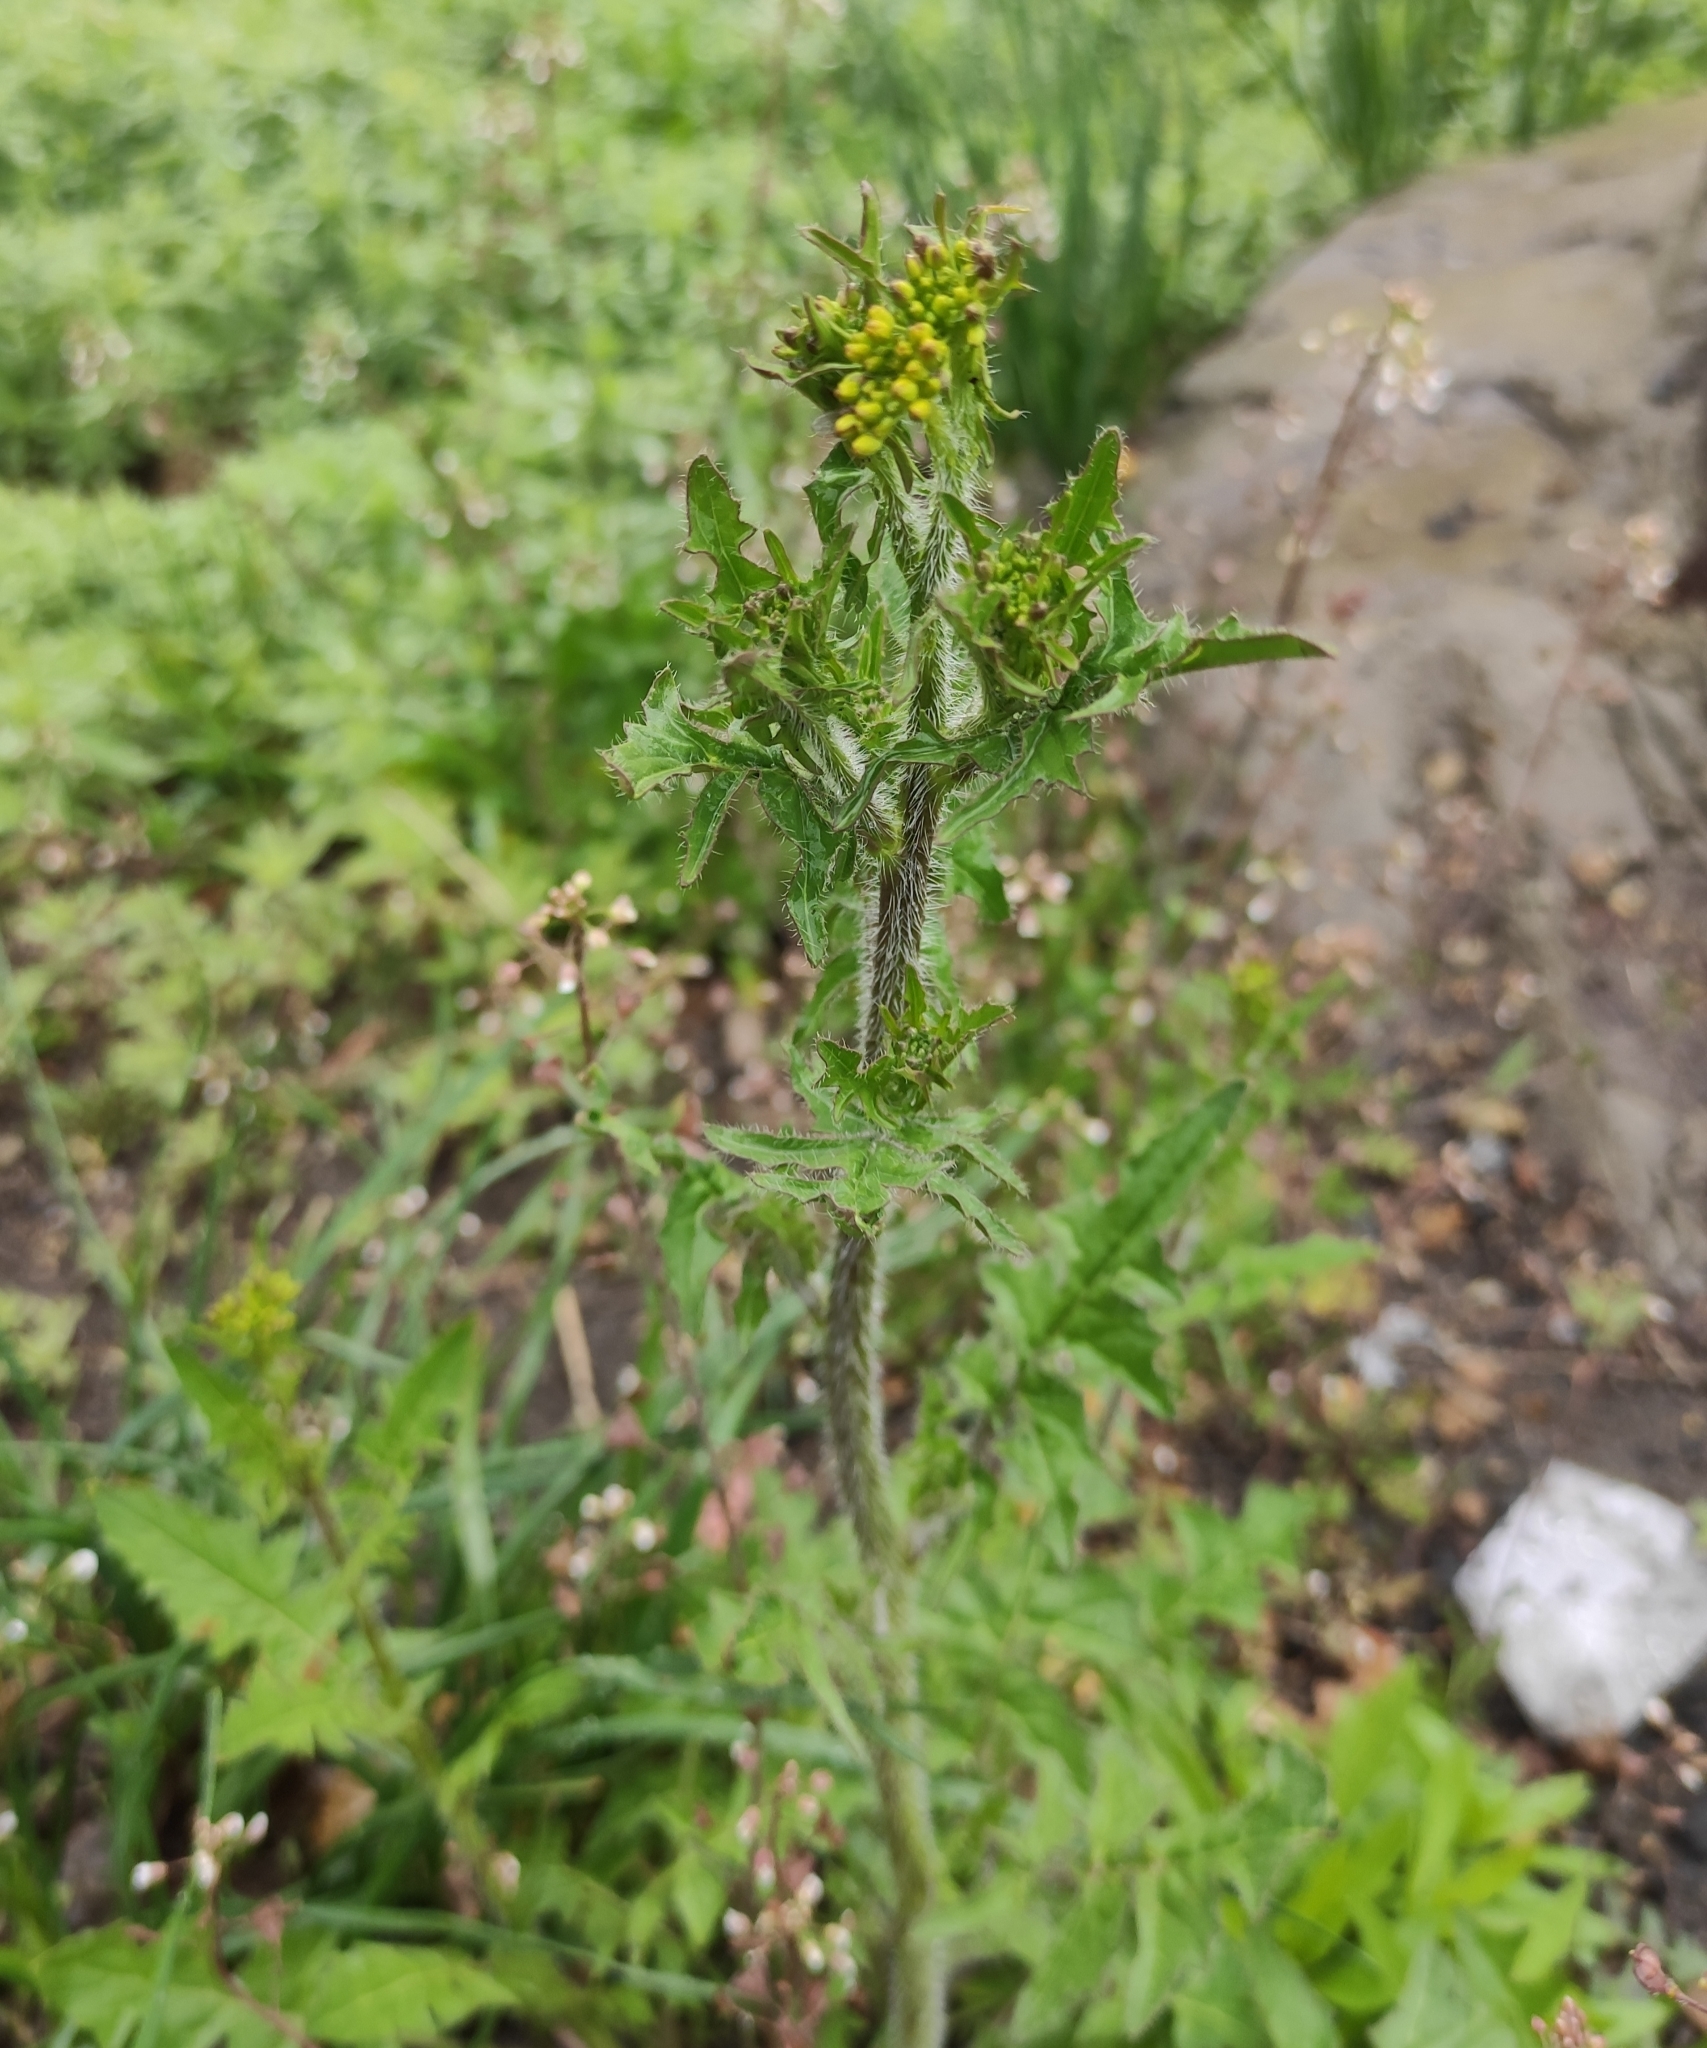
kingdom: Plantae
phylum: Tracheophyta
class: Magnoliopsida
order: Brassicales
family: Brassicaceae
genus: Sisymbrium
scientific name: Sisymbrium loeselii
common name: False london-rocket
